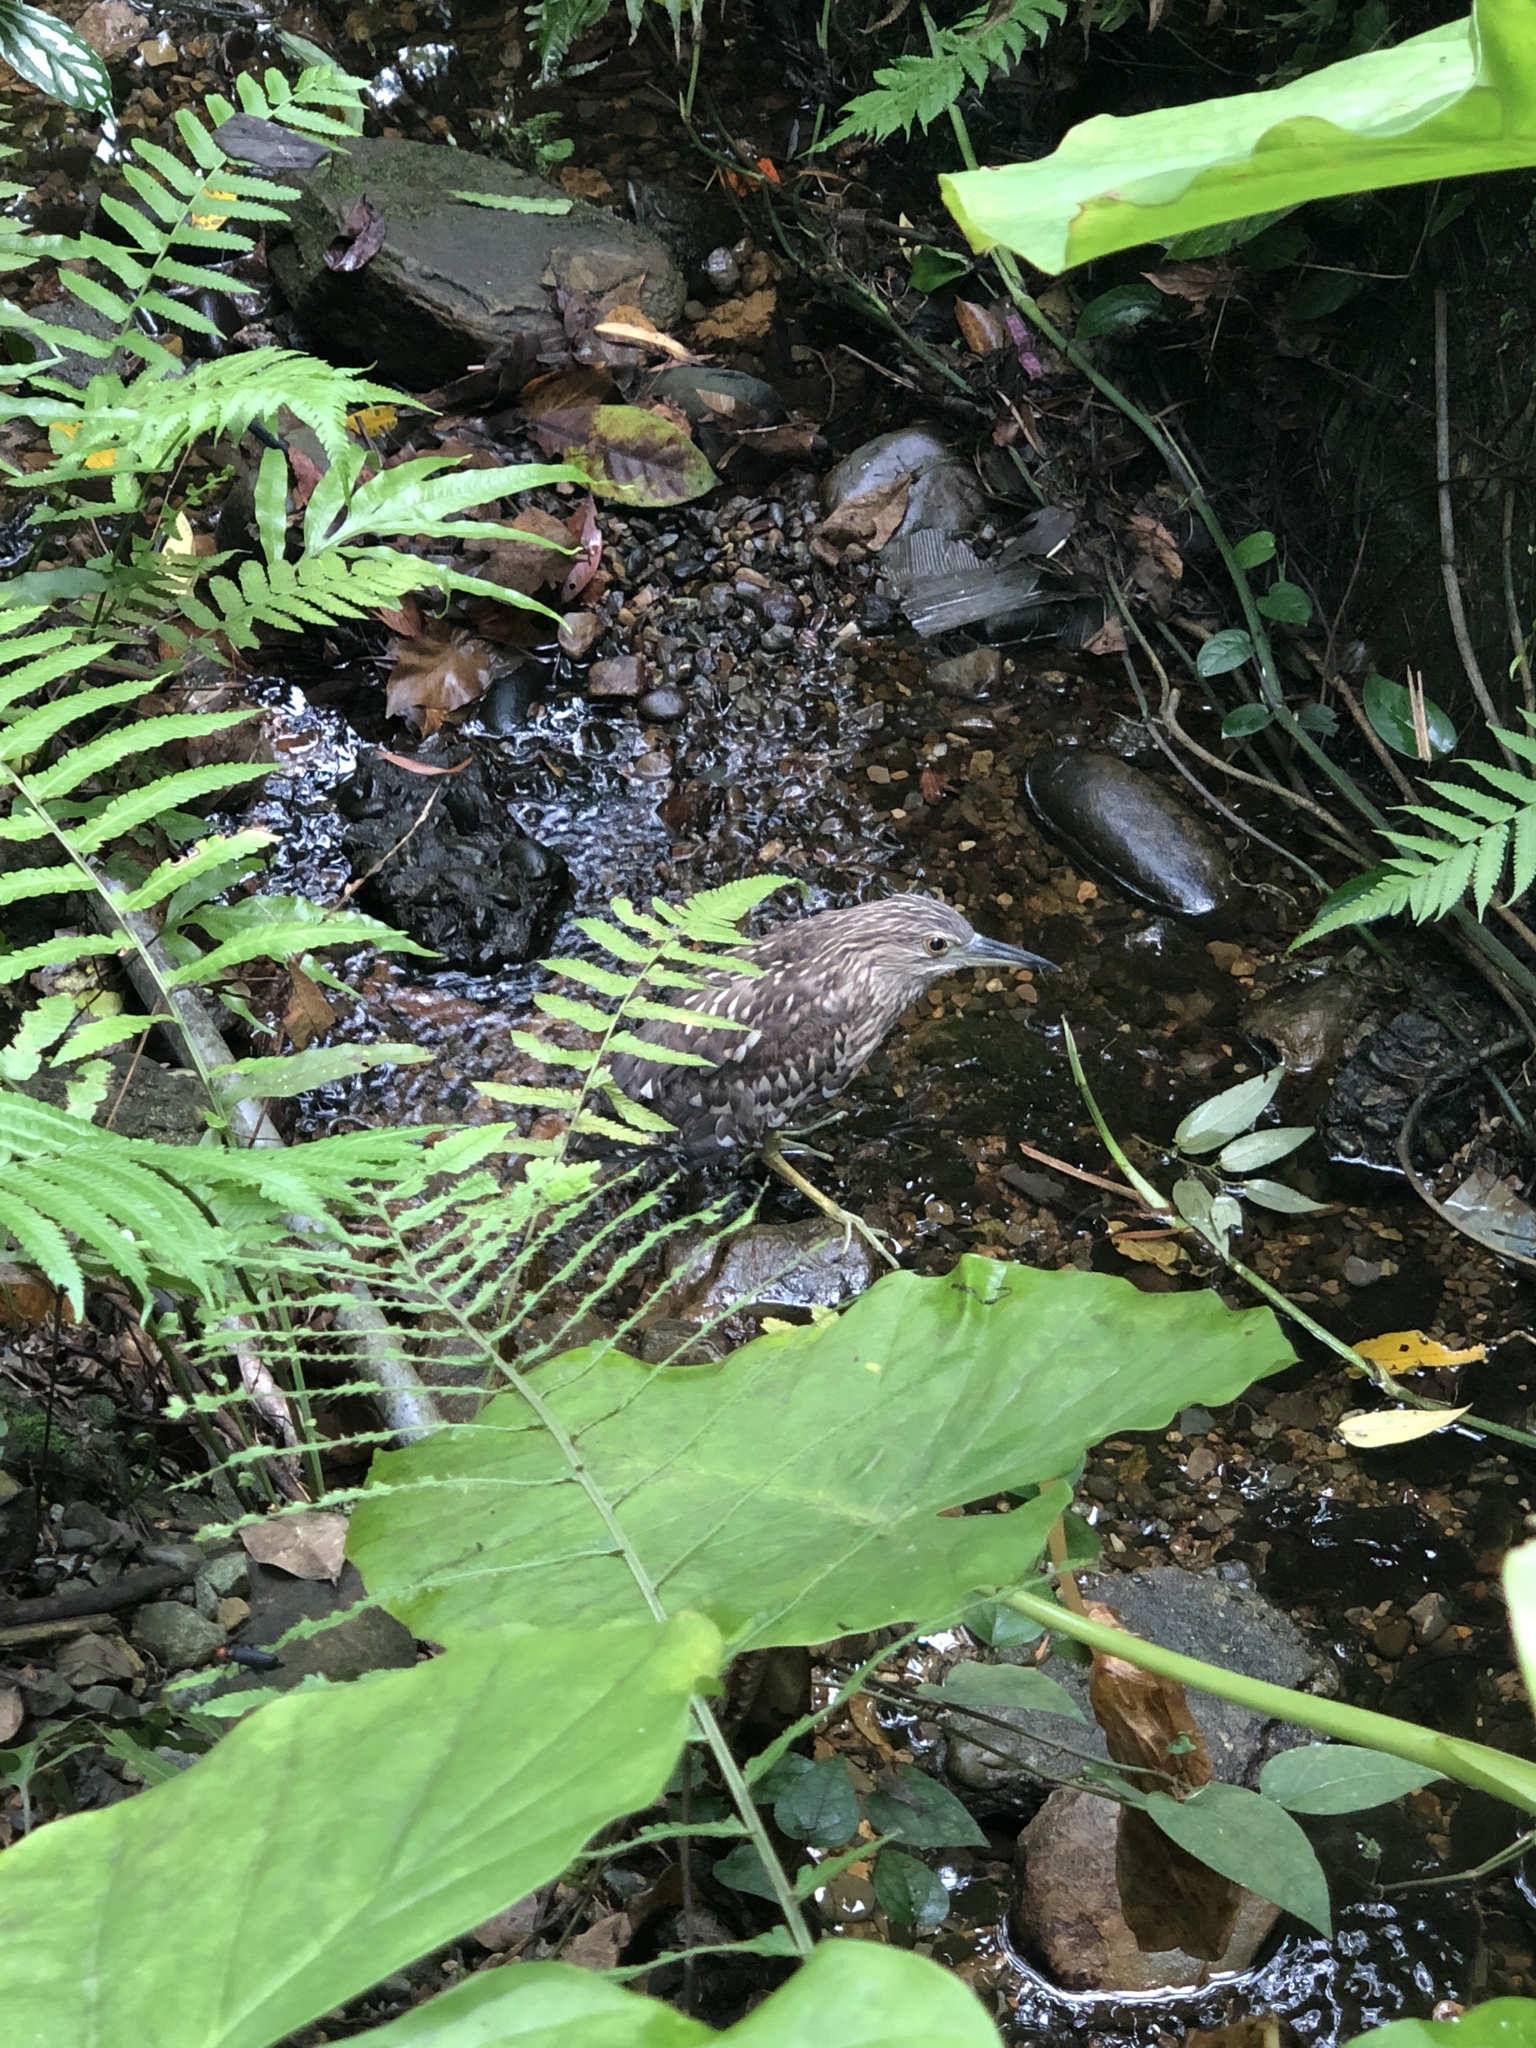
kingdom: Animalia
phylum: Chordata
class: Aves
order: Pelecaniformes
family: Ardeidae
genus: Nycticorax
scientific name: Nycticorax nycticorax
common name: Black-crowned night heron
